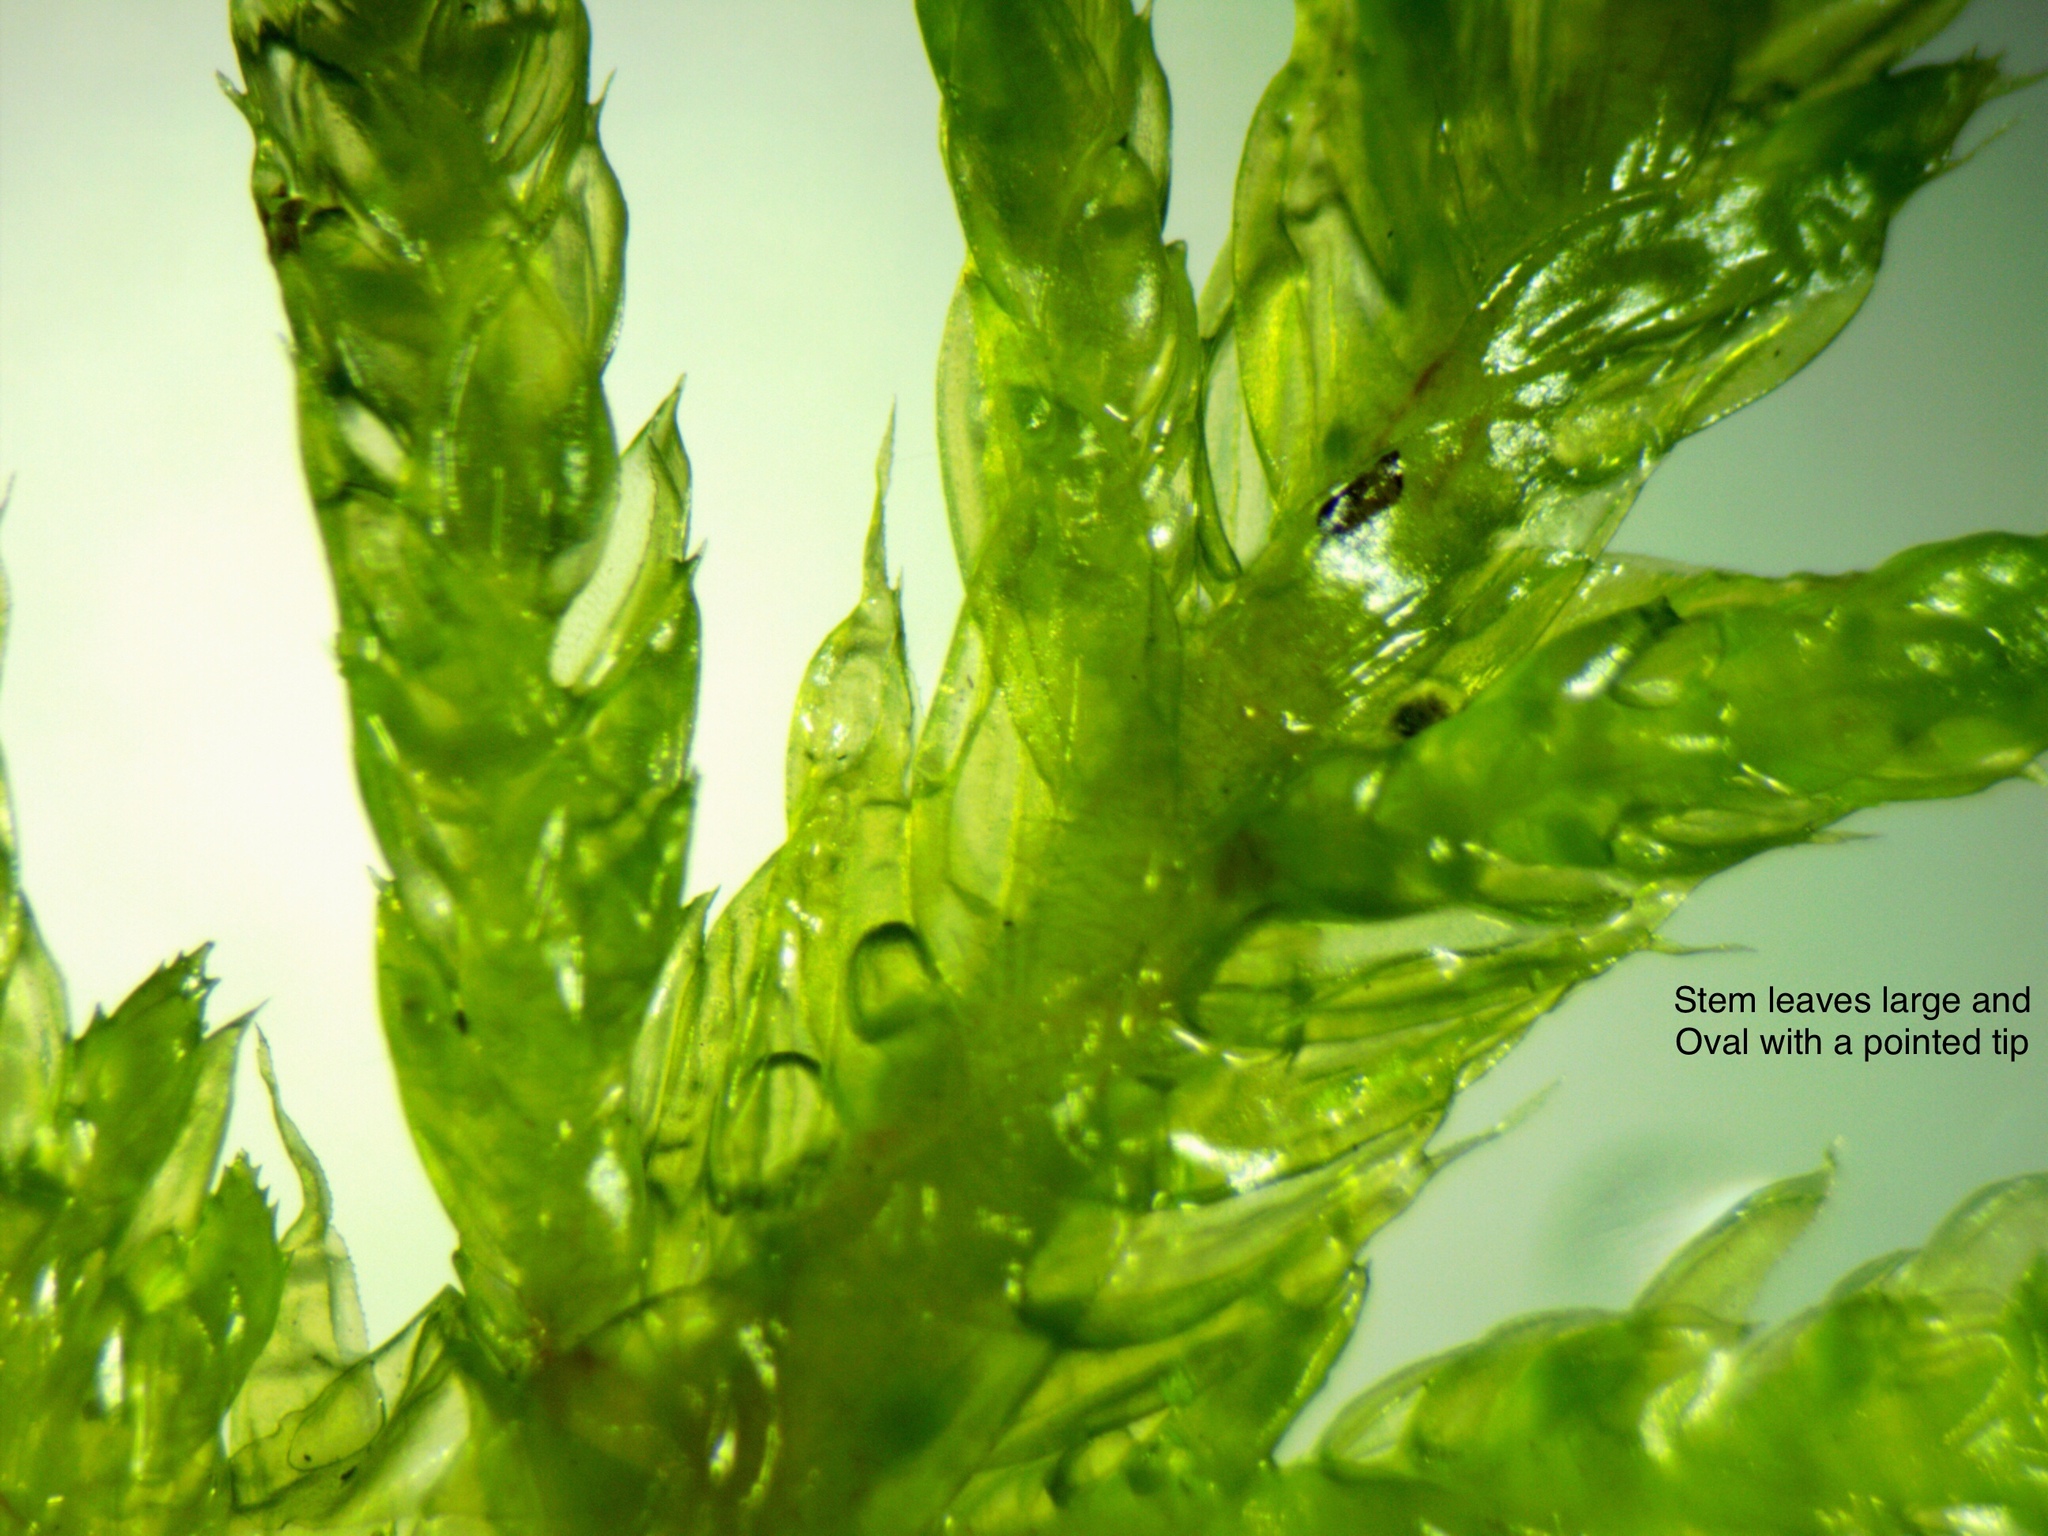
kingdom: Plantae
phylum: Bryophyta
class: Bryopsida
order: Hypnales
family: Hylocomiaceae
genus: Hylocomium
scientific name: Hylocomium splendens
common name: Stairstep moss
